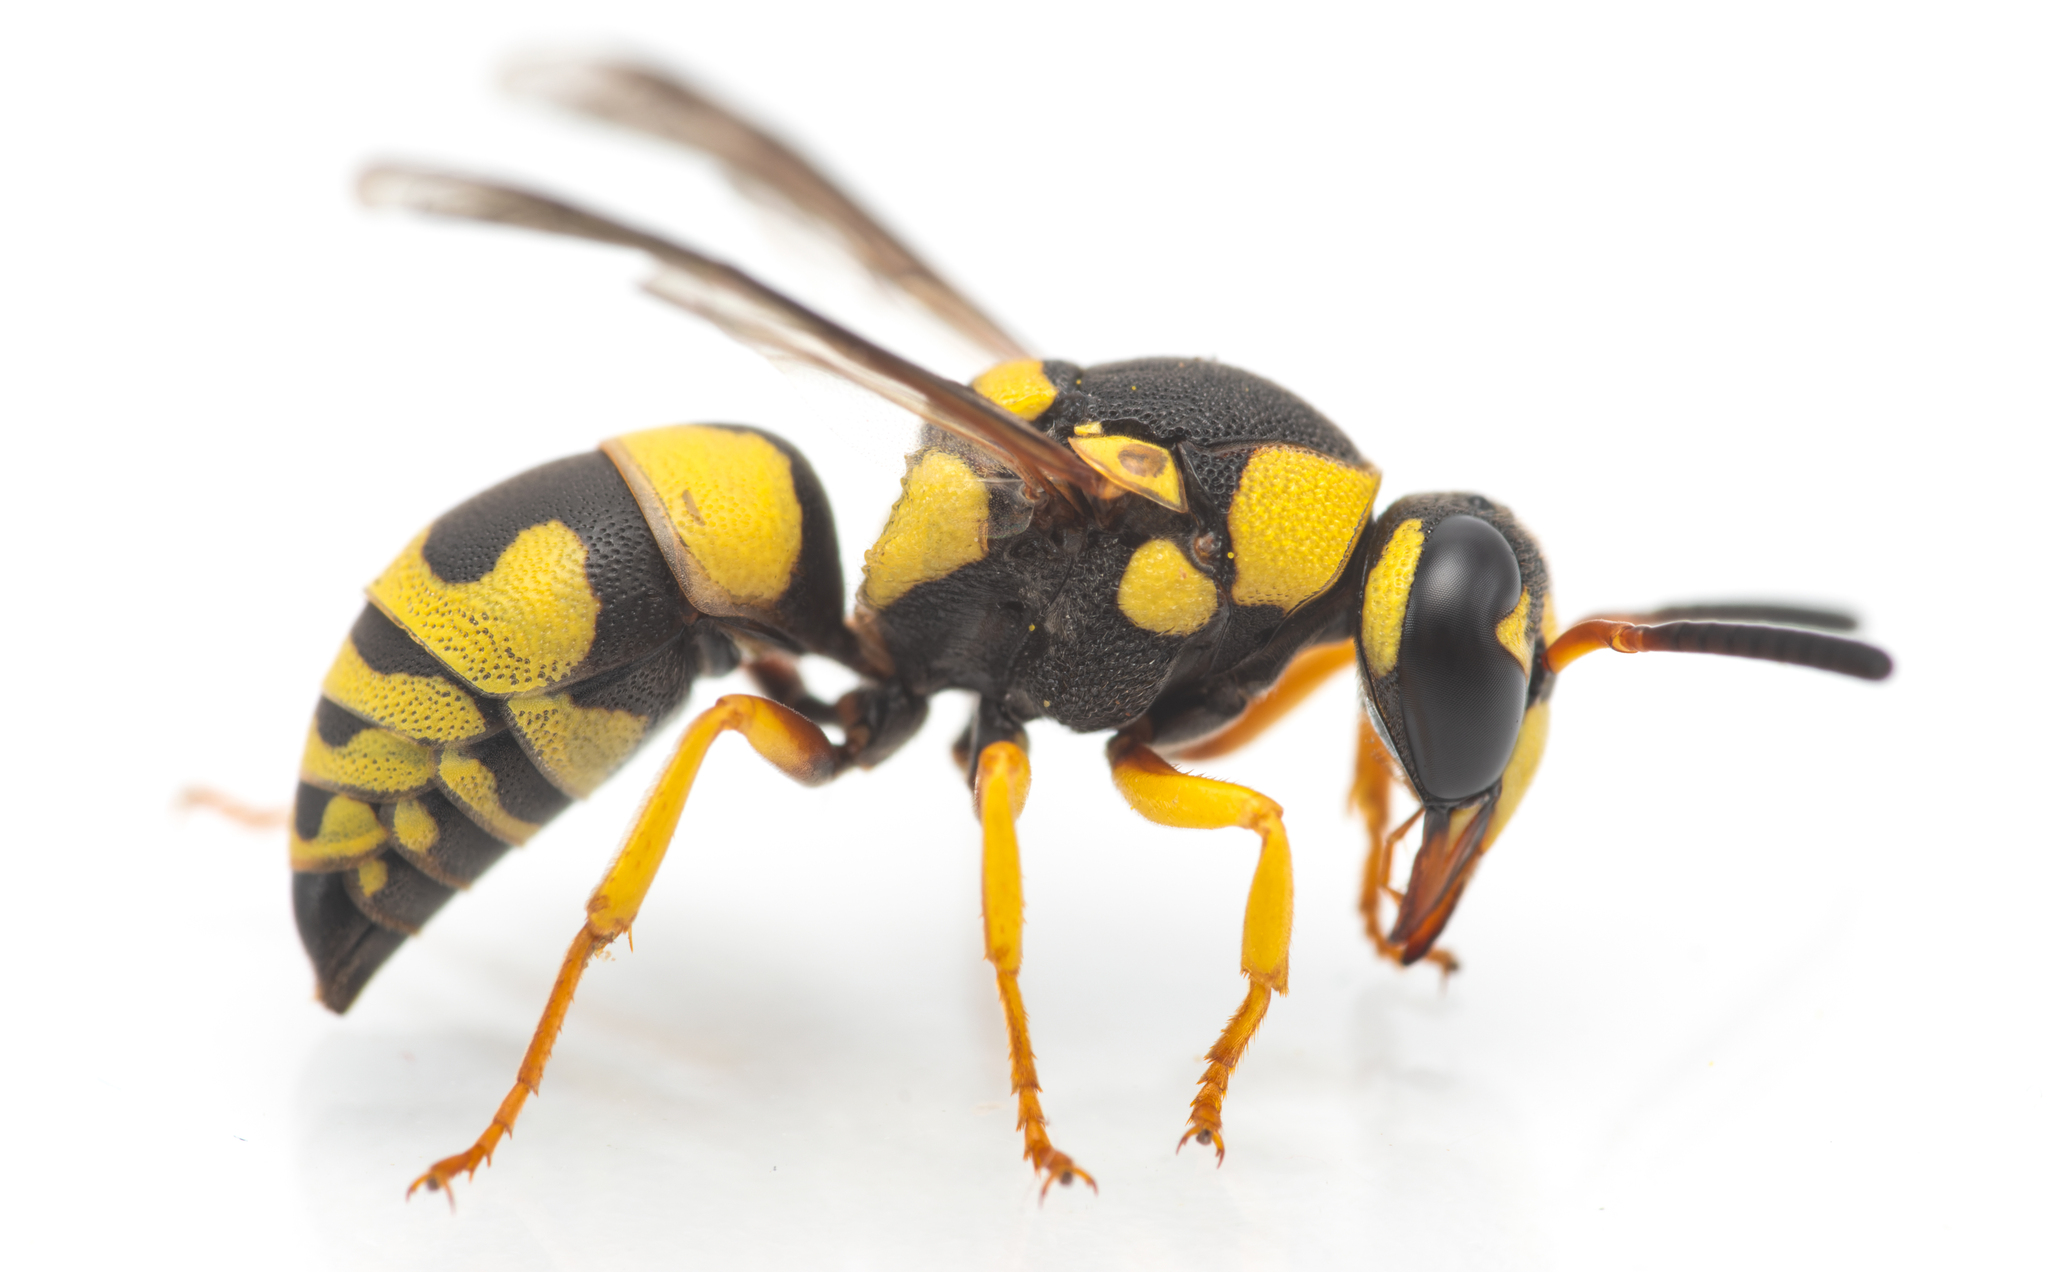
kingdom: Animalia
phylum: Arthropoda
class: Insecta
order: Hymenoptera
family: Eumenidae
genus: Euodynerus
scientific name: Euodynerus variegatus
